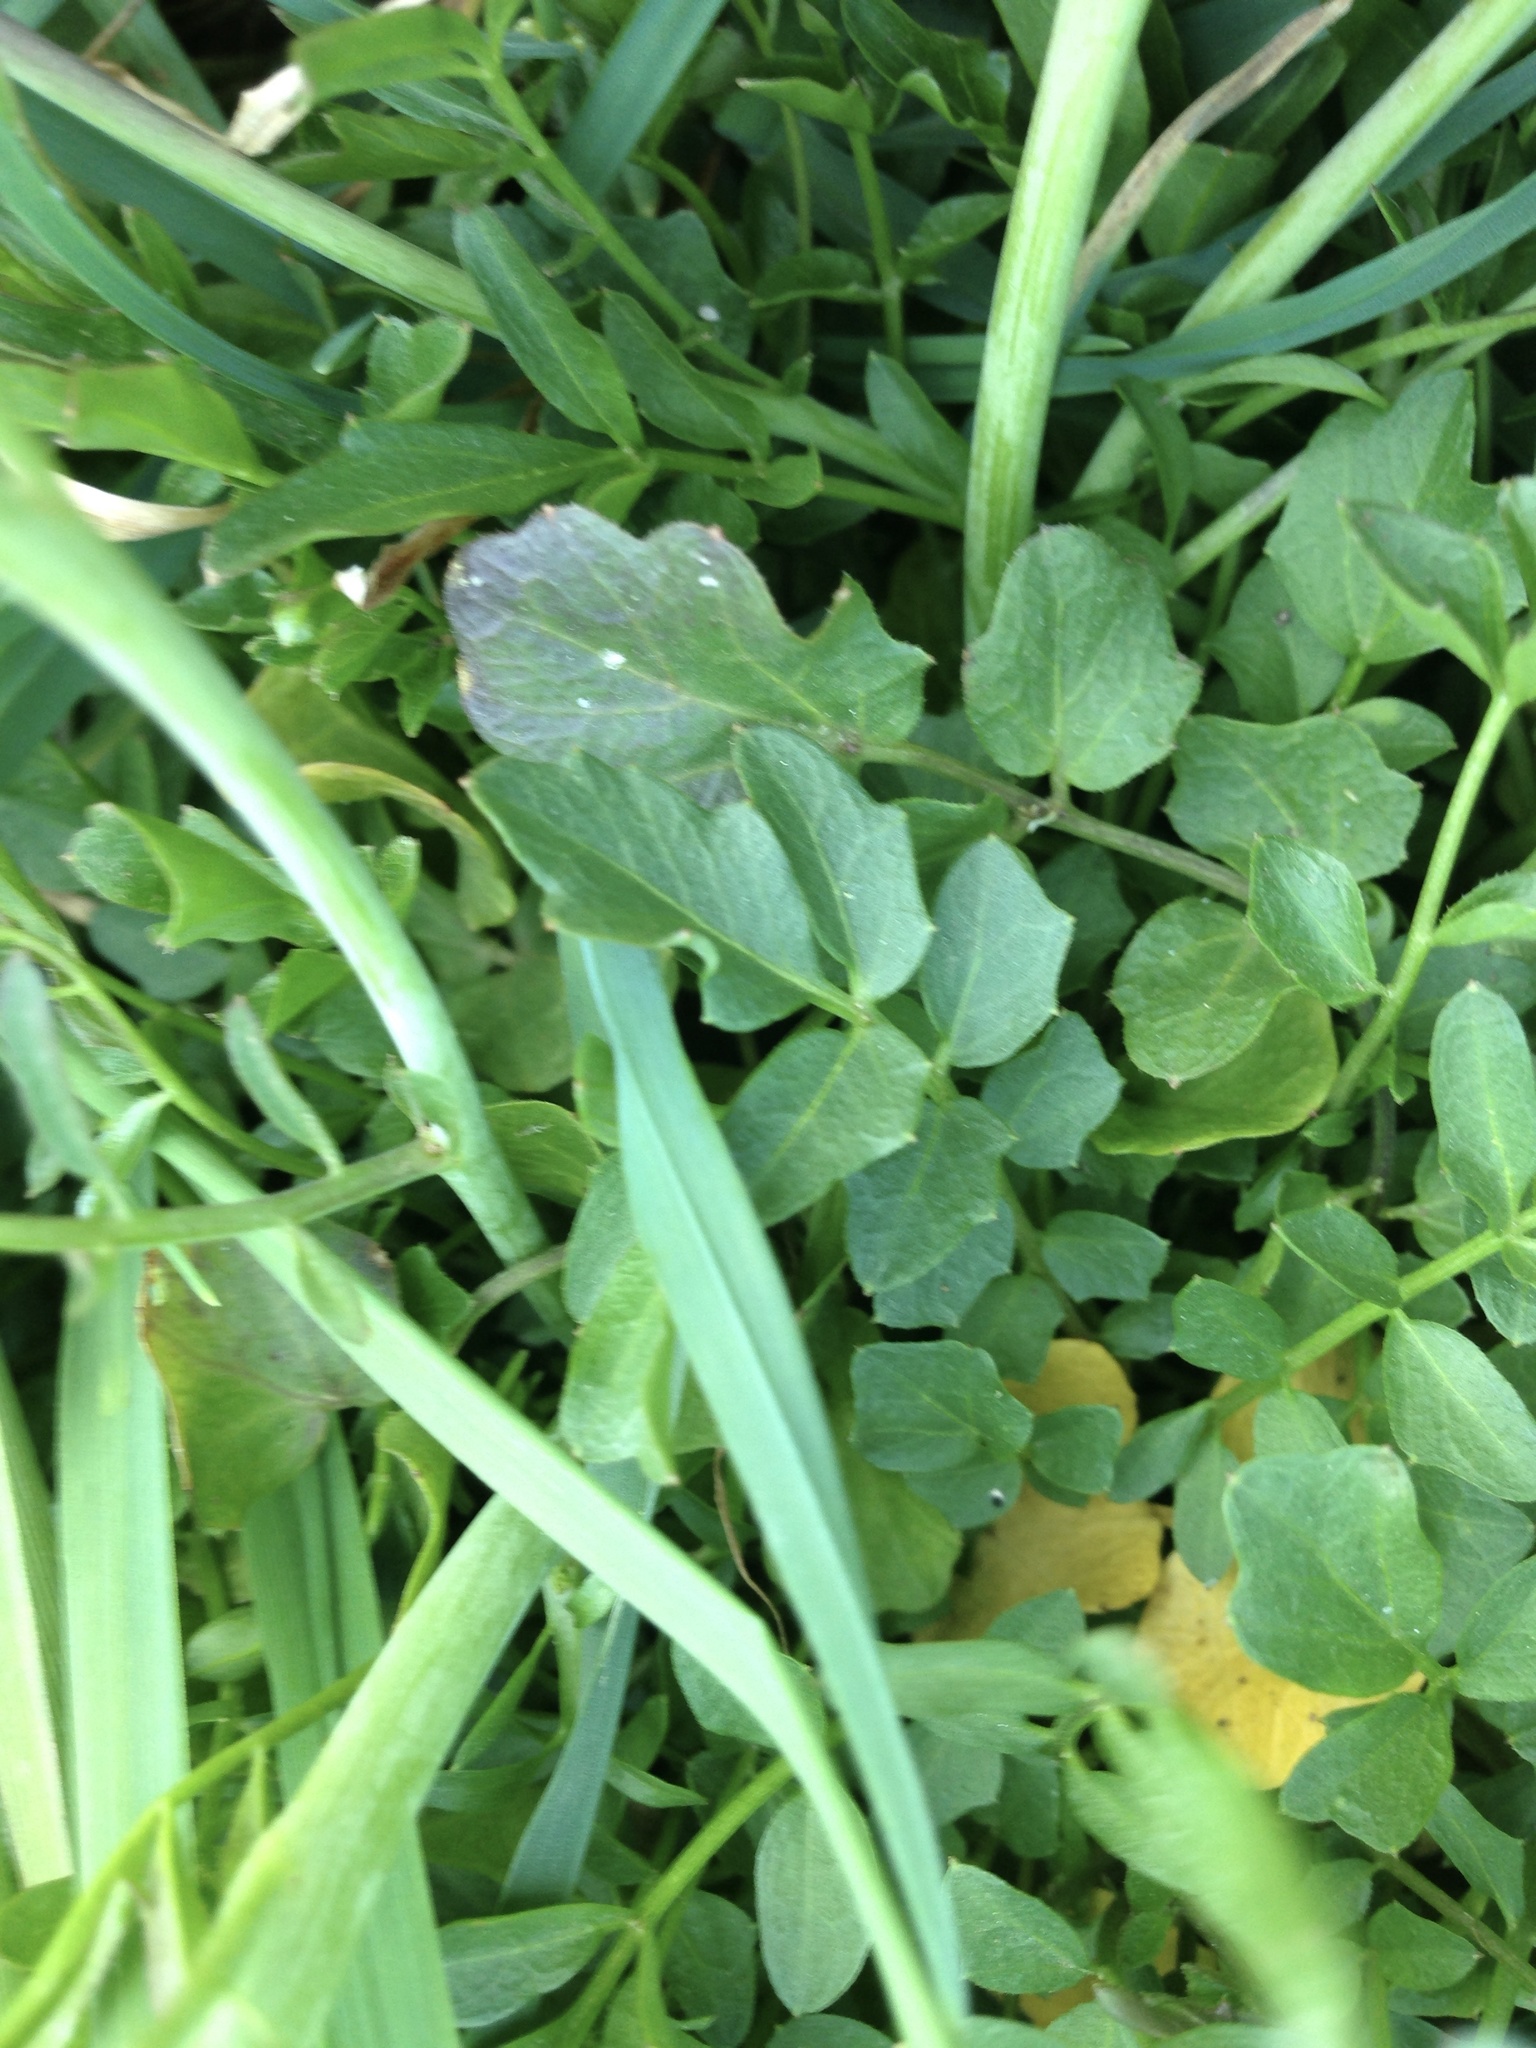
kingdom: Plantae
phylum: Tracheophyta
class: Magnoliopsida
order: Brassicales
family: Brassicaceae
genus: Cardamine
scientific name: Cardamine pratensis
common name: Cuckoo flower
